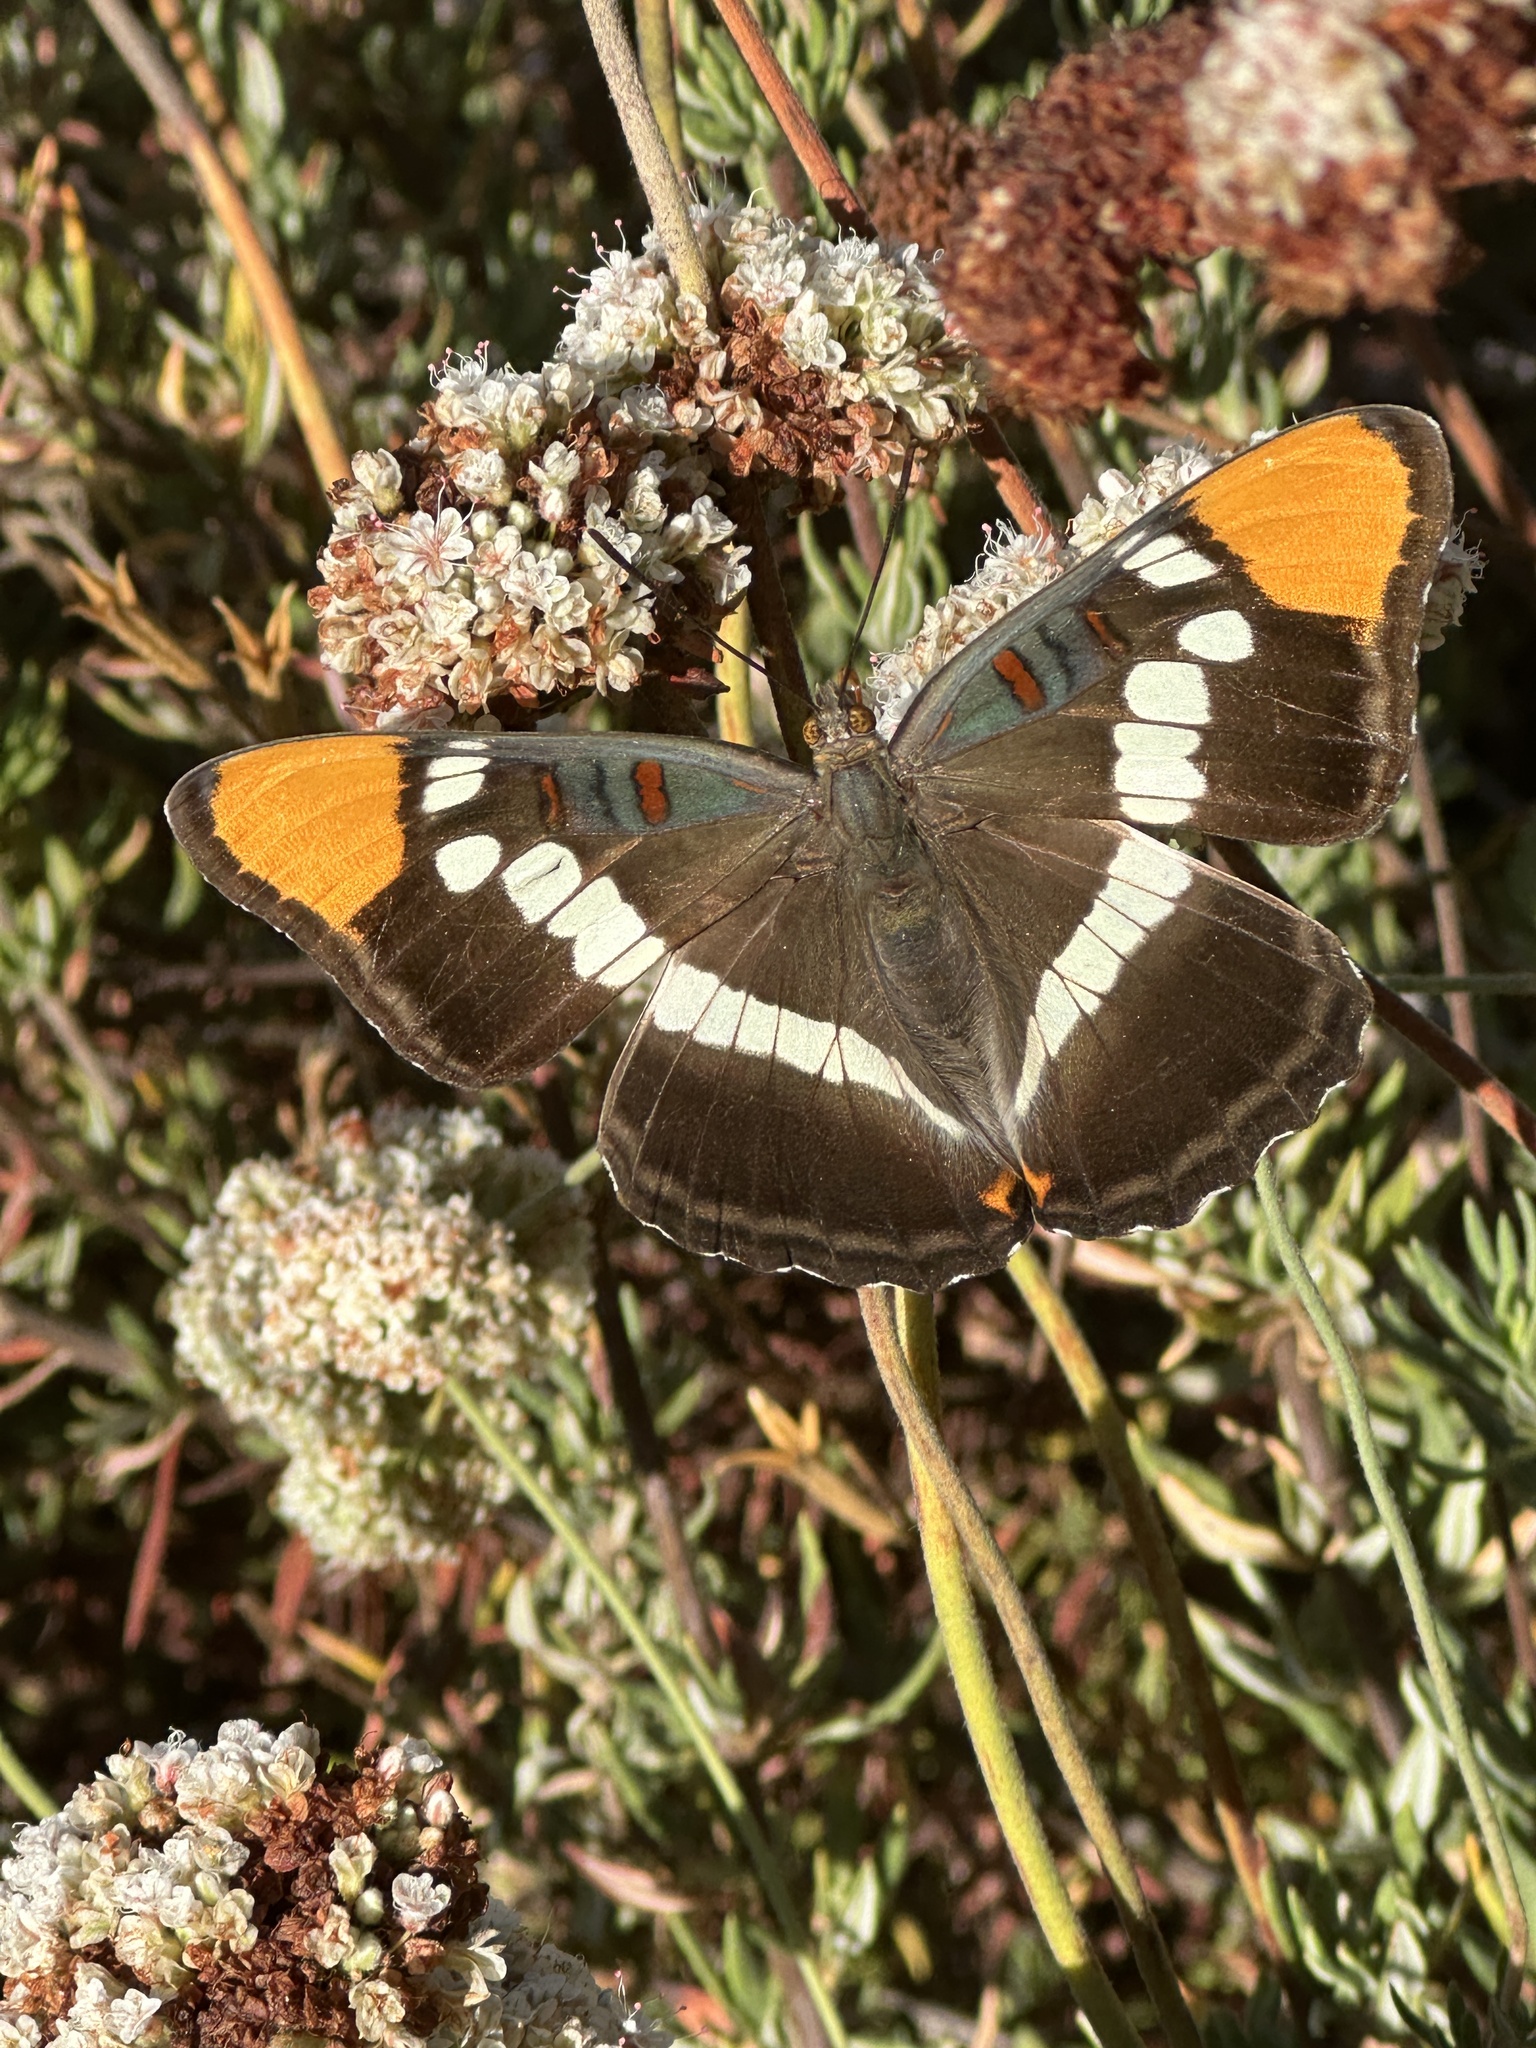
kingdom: Animalia
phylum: Arthropoda
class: Insecta
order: Lepidoptera
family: Nymphalidae
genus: Limenitis
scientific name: Limenitis bredowii
